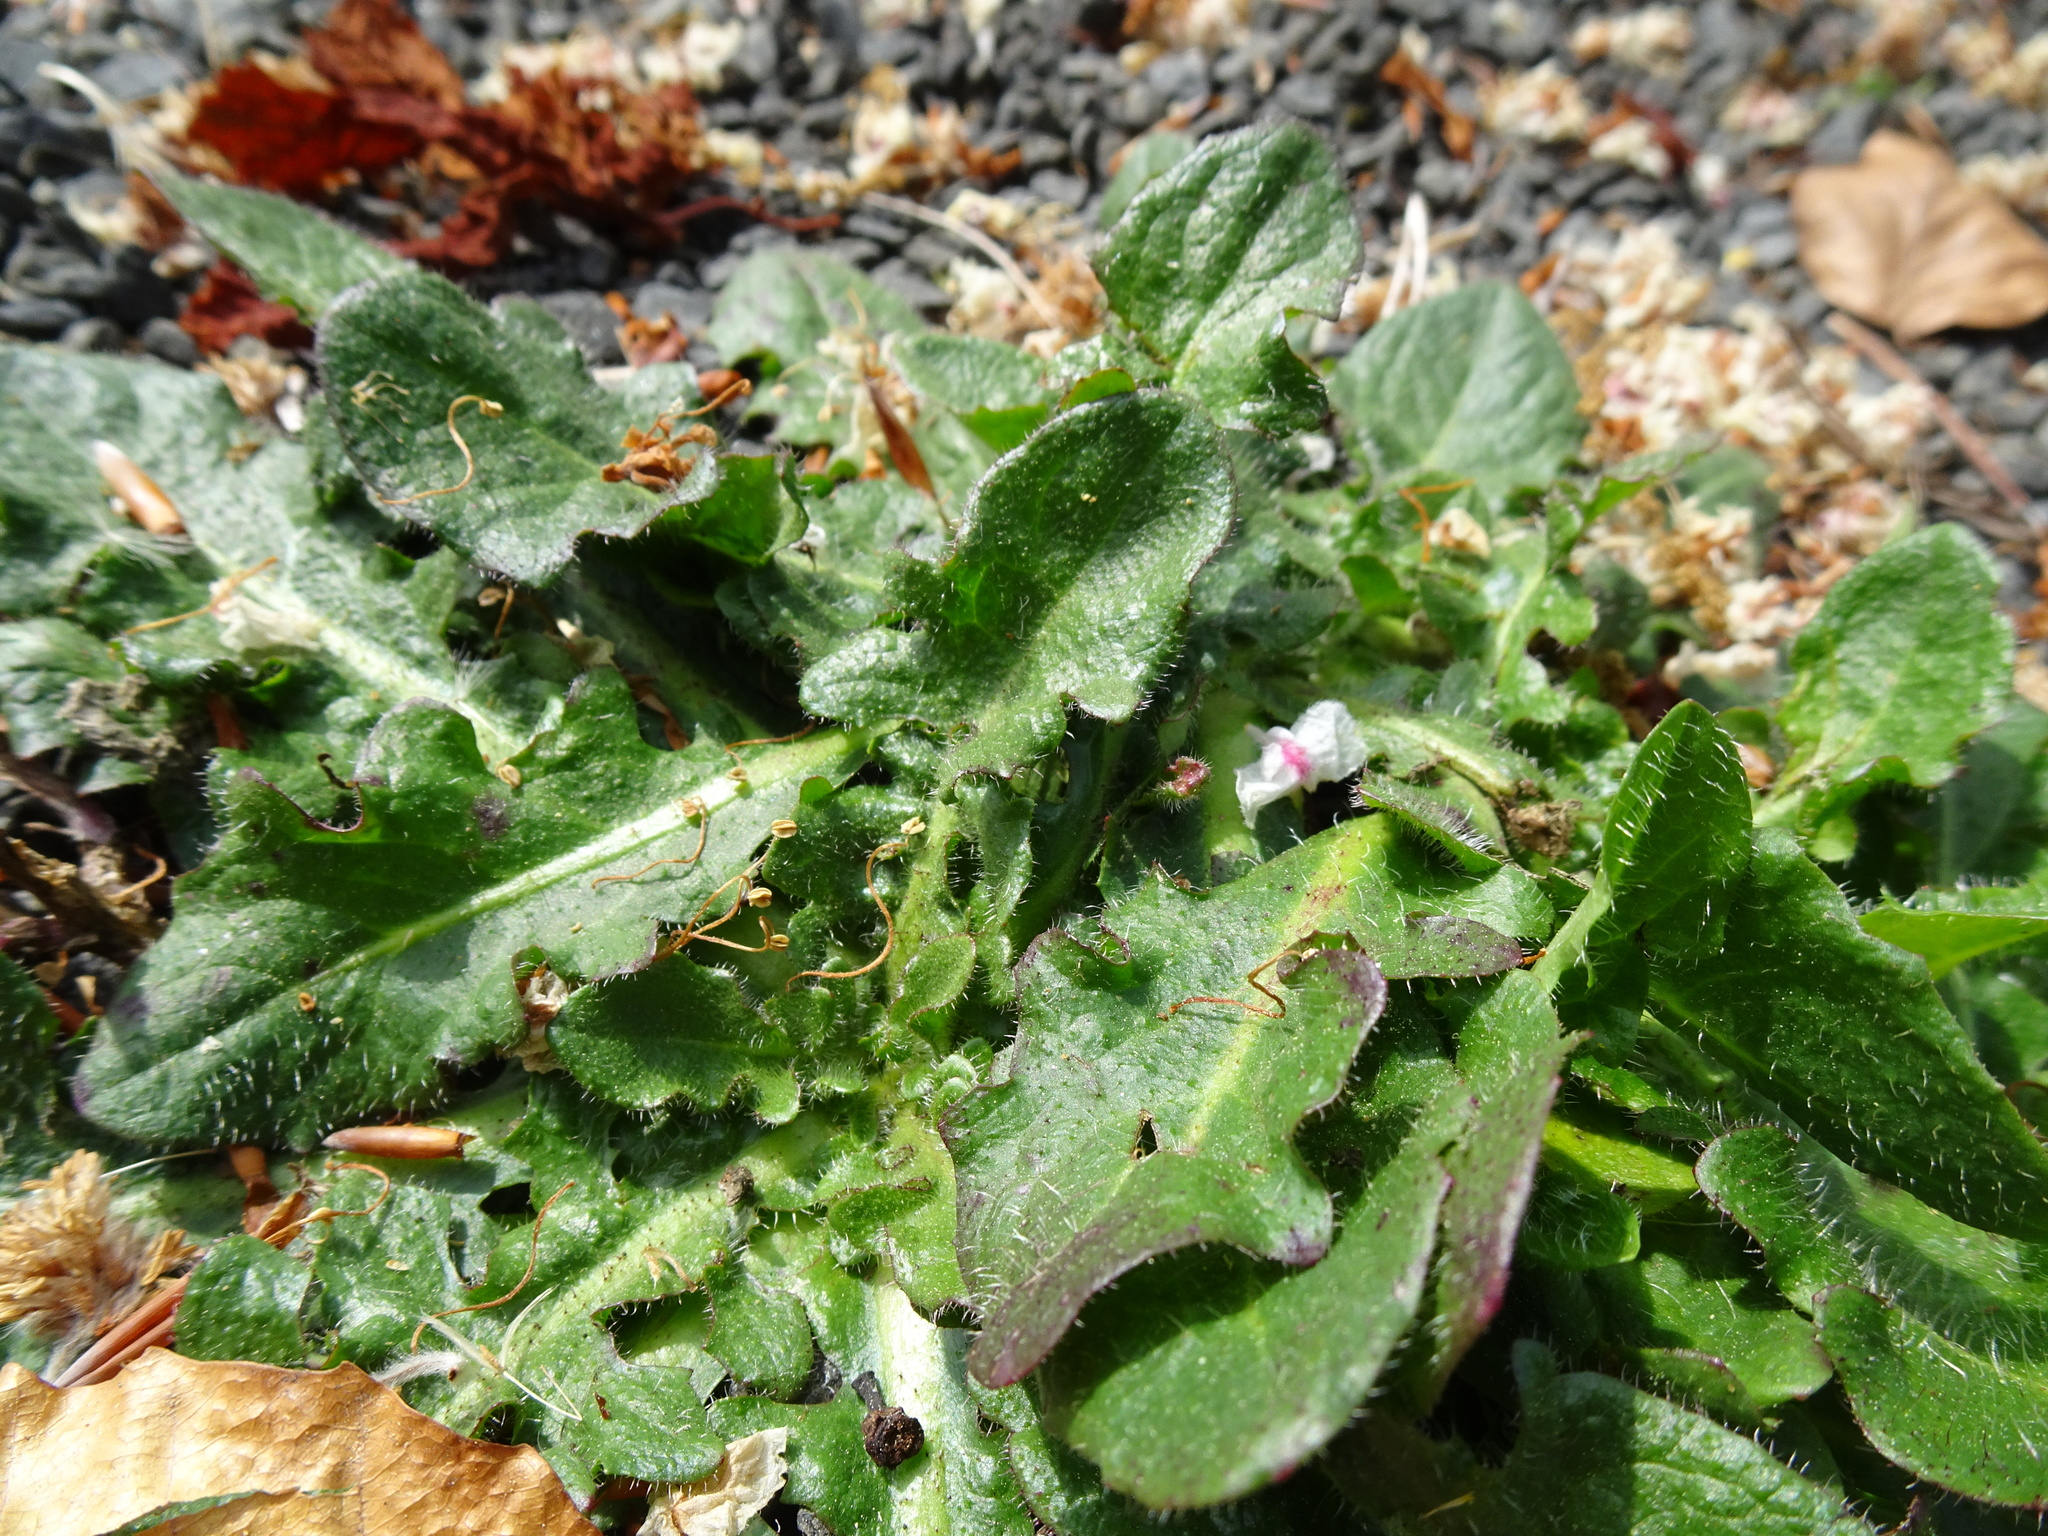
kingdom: Plantae
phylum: Tracheophyta
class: Magnoliopsida
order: Asterales
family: Asteraceae
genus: Hypochaeris
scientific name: Hypochaeris radicata
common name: Flatweed
